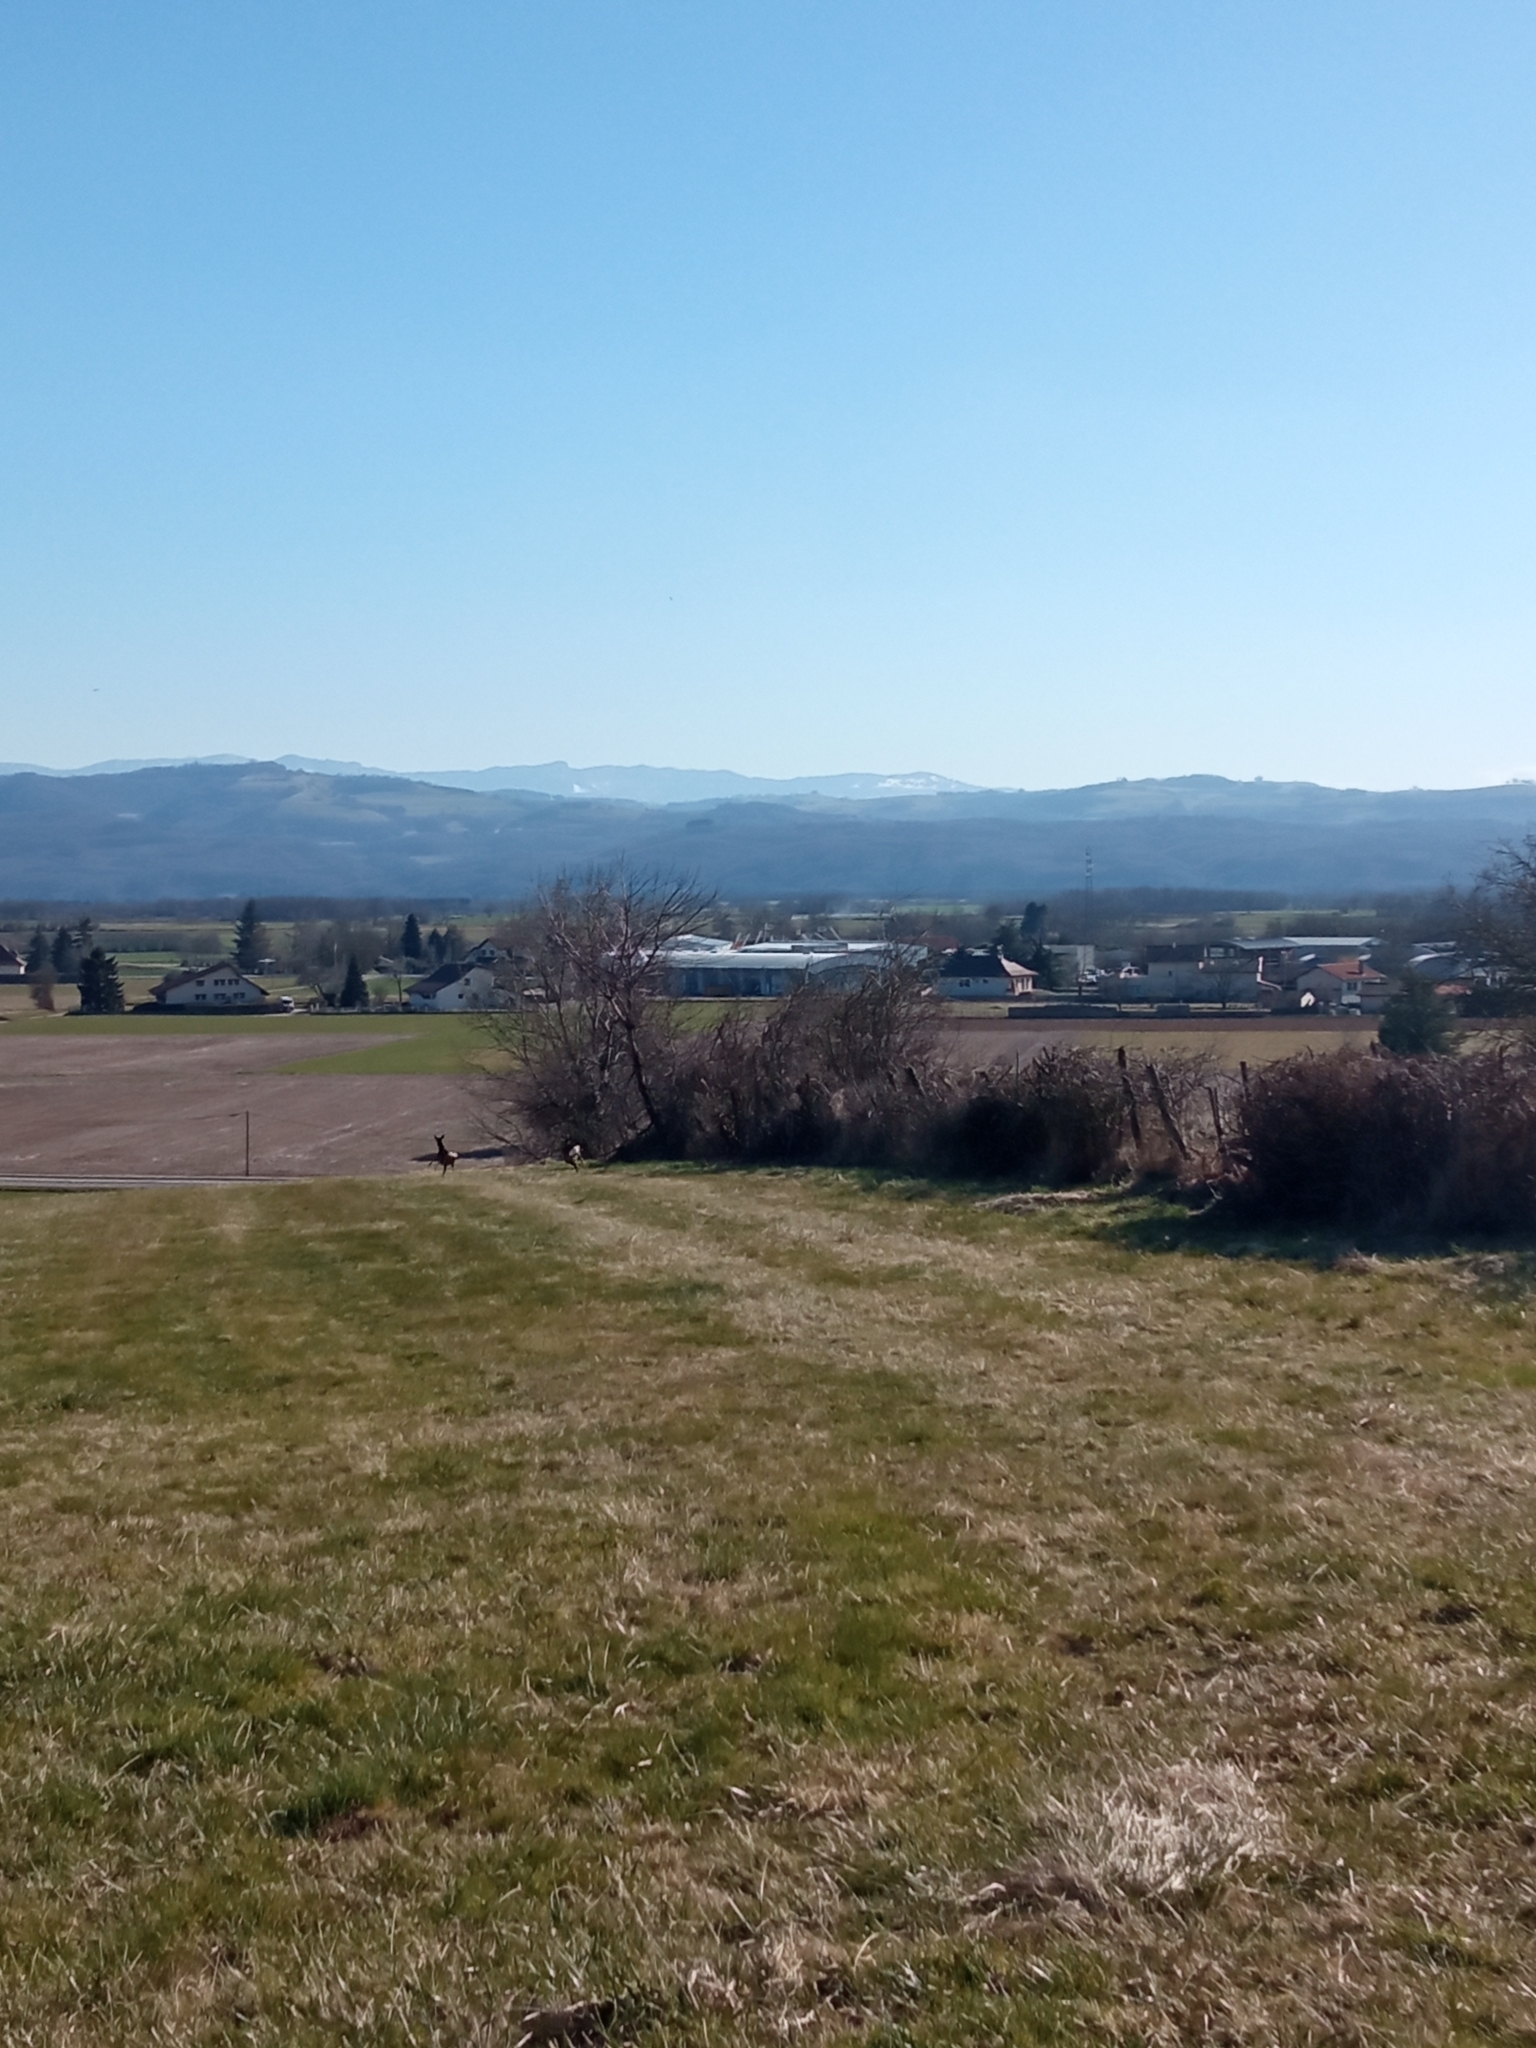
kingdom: Animalia
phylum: Chordata
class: Mammalia
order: Artiodactyla
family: Cervidae
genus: Capreolus
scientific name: Capreolus capreolus
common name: Western roe deer
